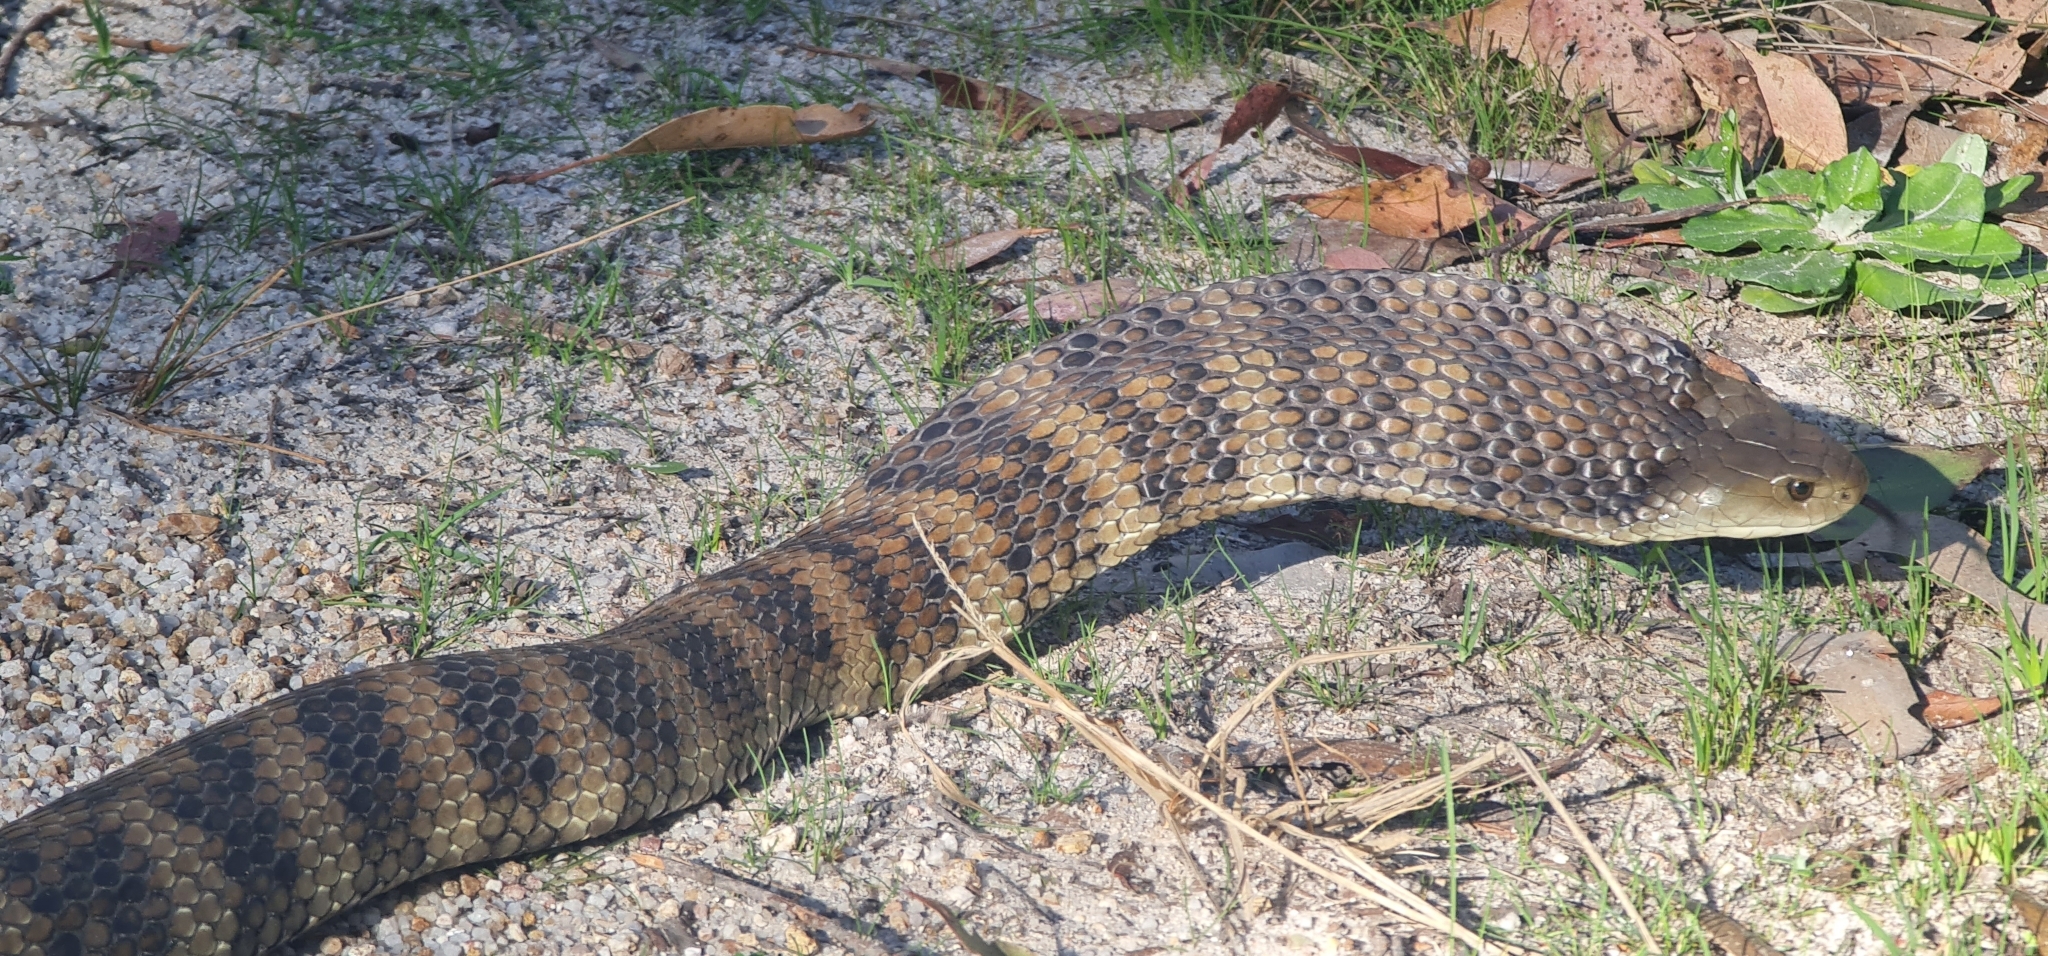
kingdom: Animalia
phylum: Chordata
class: Squamata
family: Elapidae
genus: Notechis
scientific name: Notechis scutatus
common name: Mainland tiger snake
